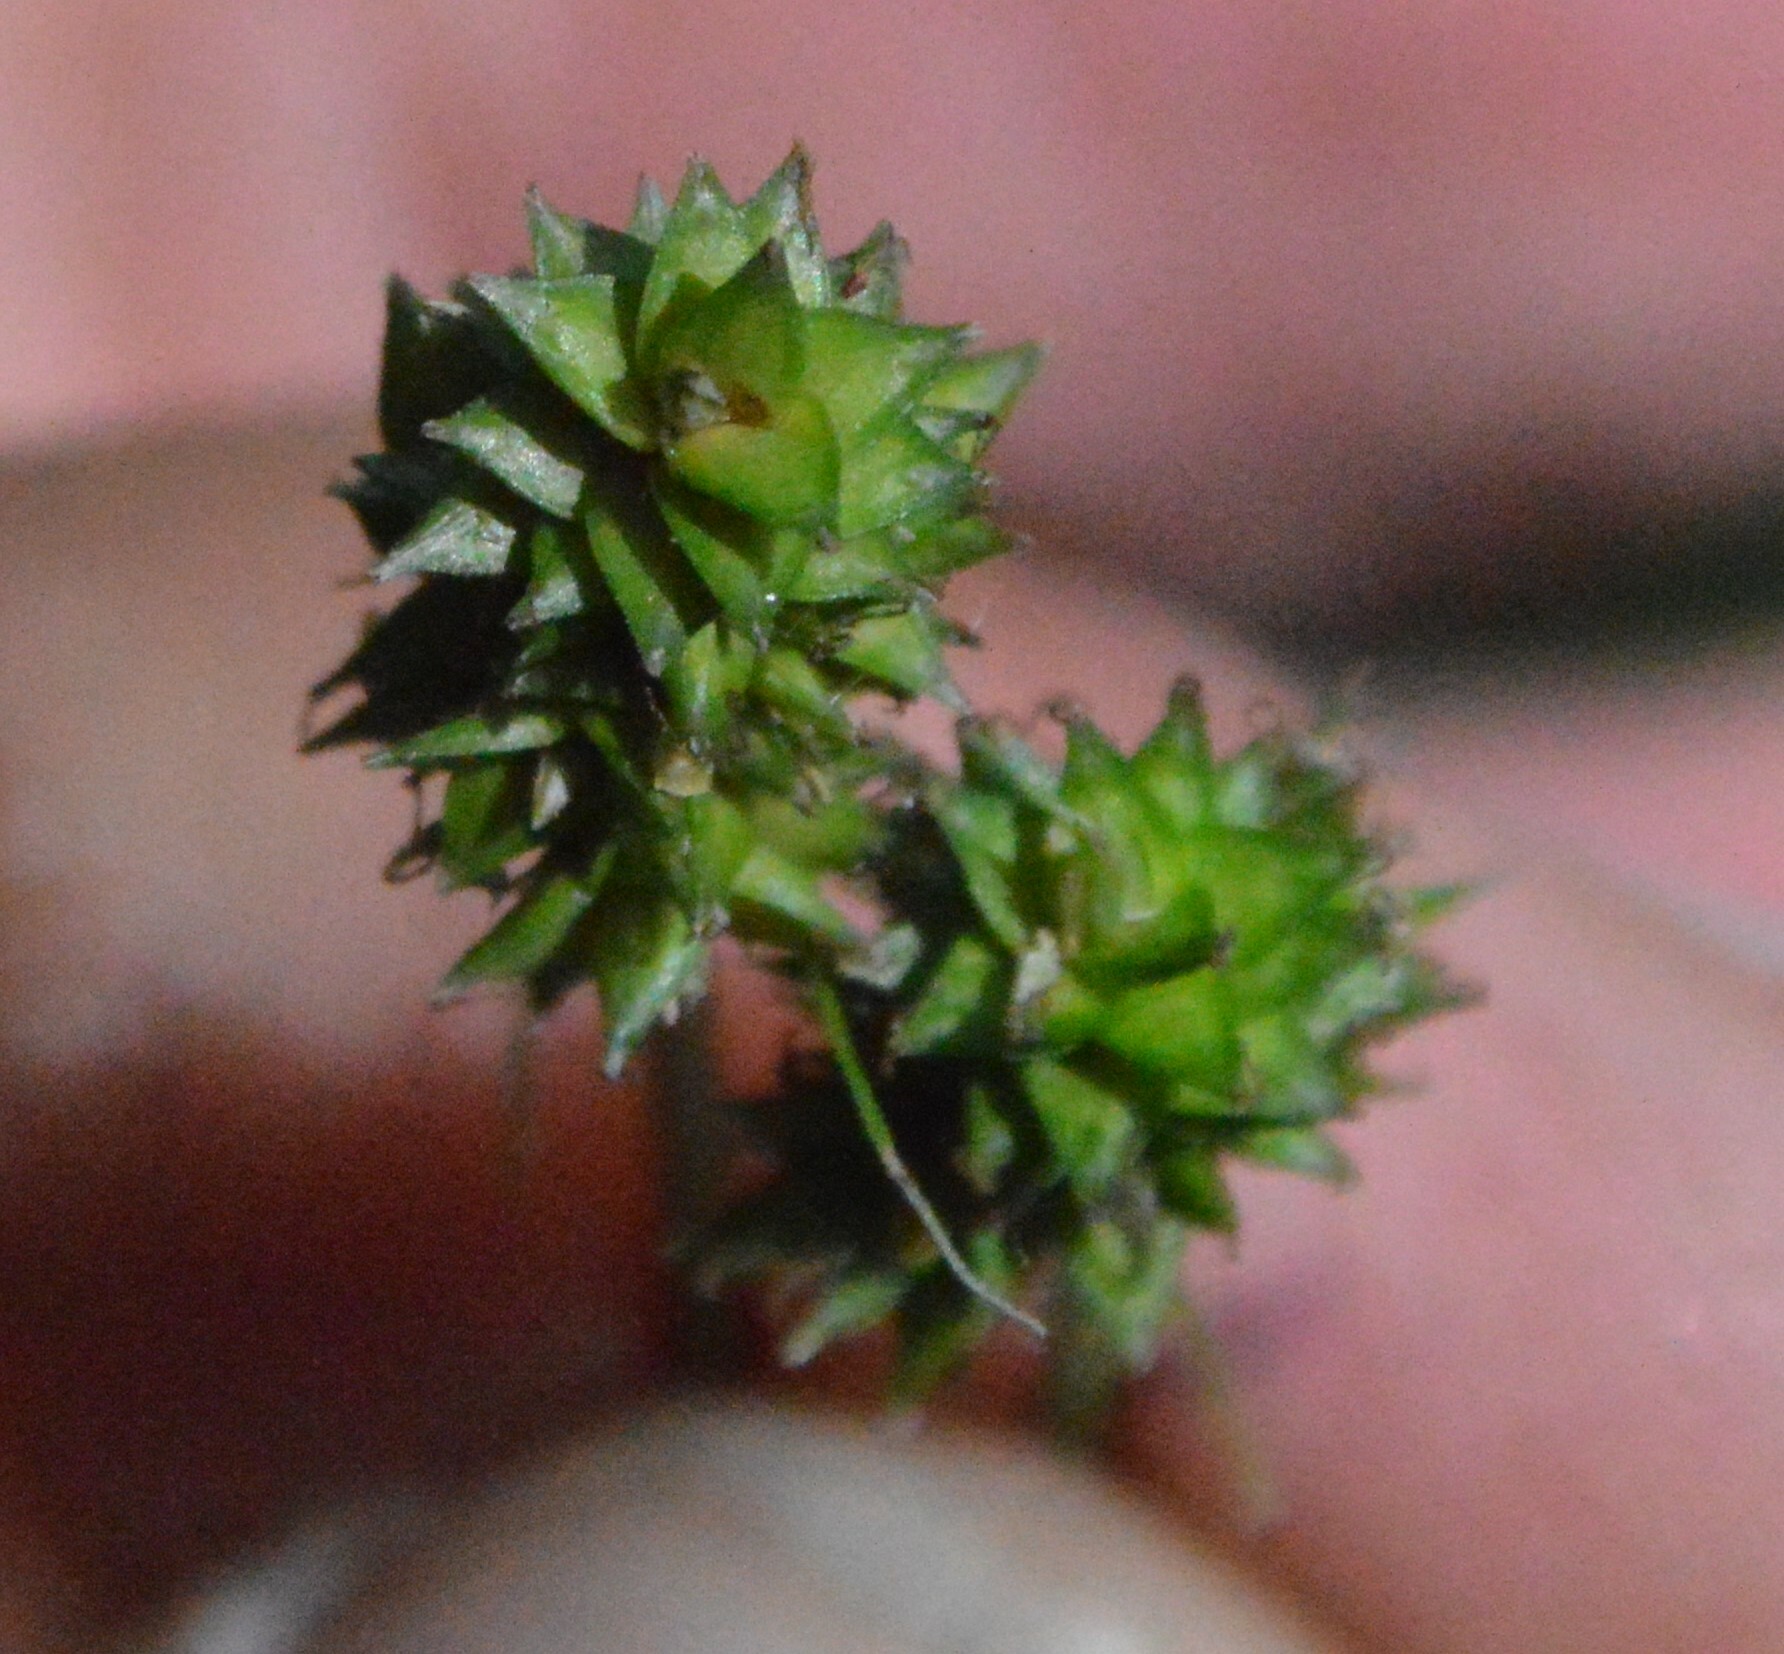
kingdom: Plantae
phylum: Tracheophyta
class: Liliopsida
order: Poales
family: Cyperaceae
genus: Carex
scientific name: Carex leavenworthii
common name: Leavenworth's bracted sedge
